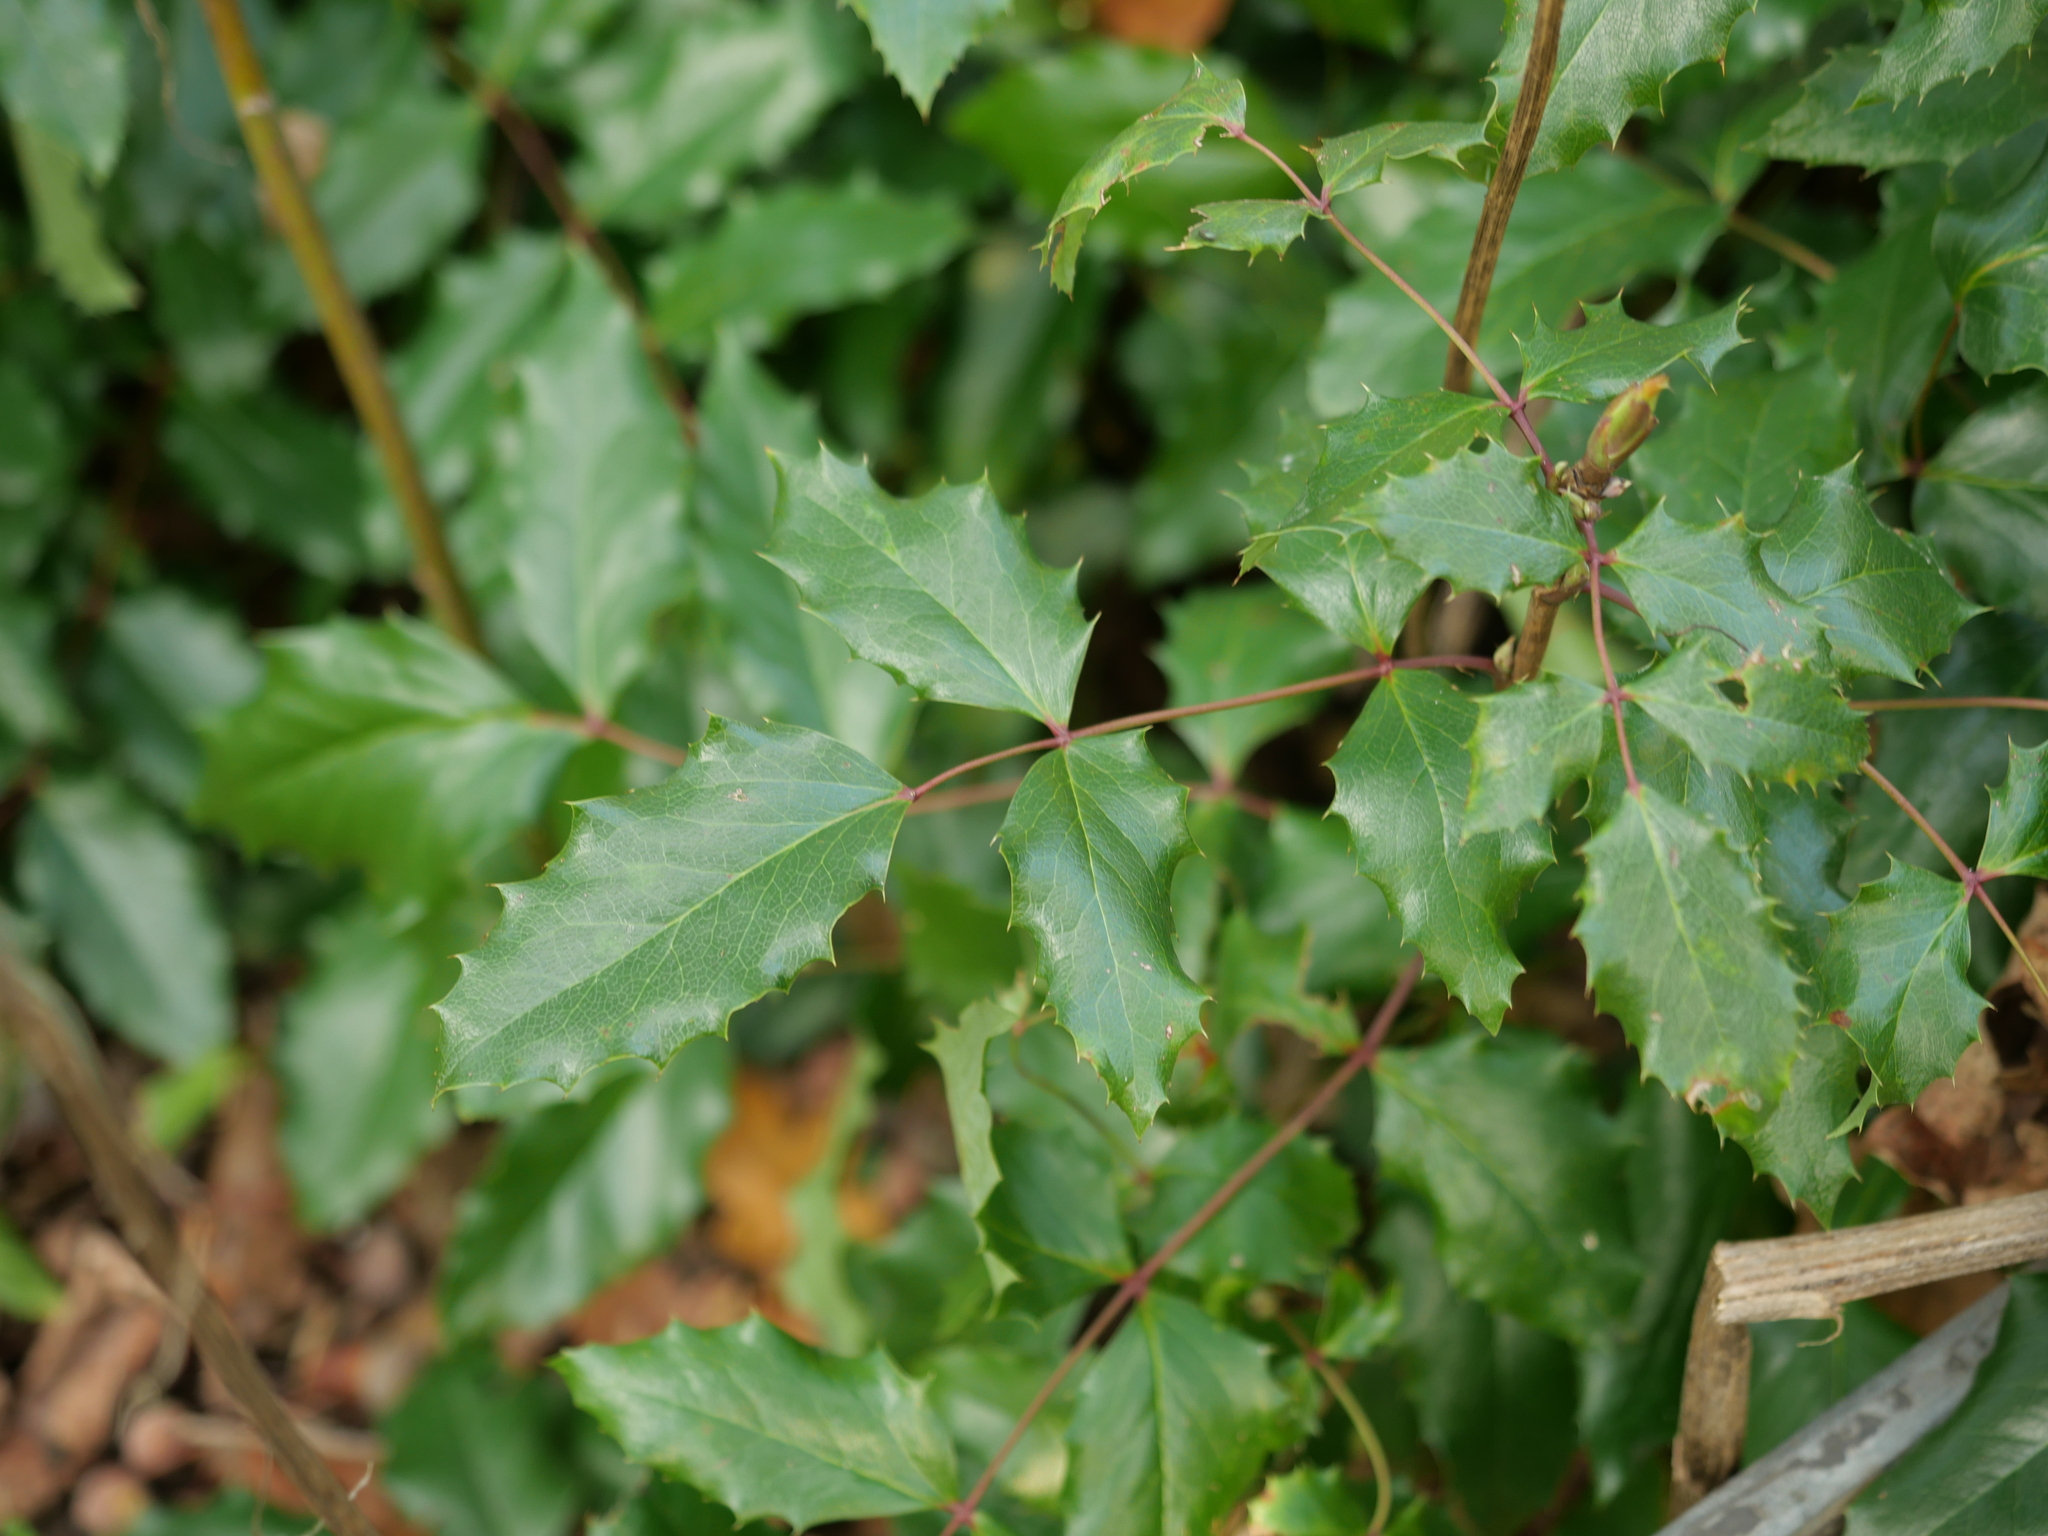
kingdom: Plantae
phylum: Tracheophyta
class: Magnoliopsida
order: Ranunculales
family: Berberidaceae
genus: Mahonia
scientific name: Mahonia aquifolium
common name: Oregon-grape
